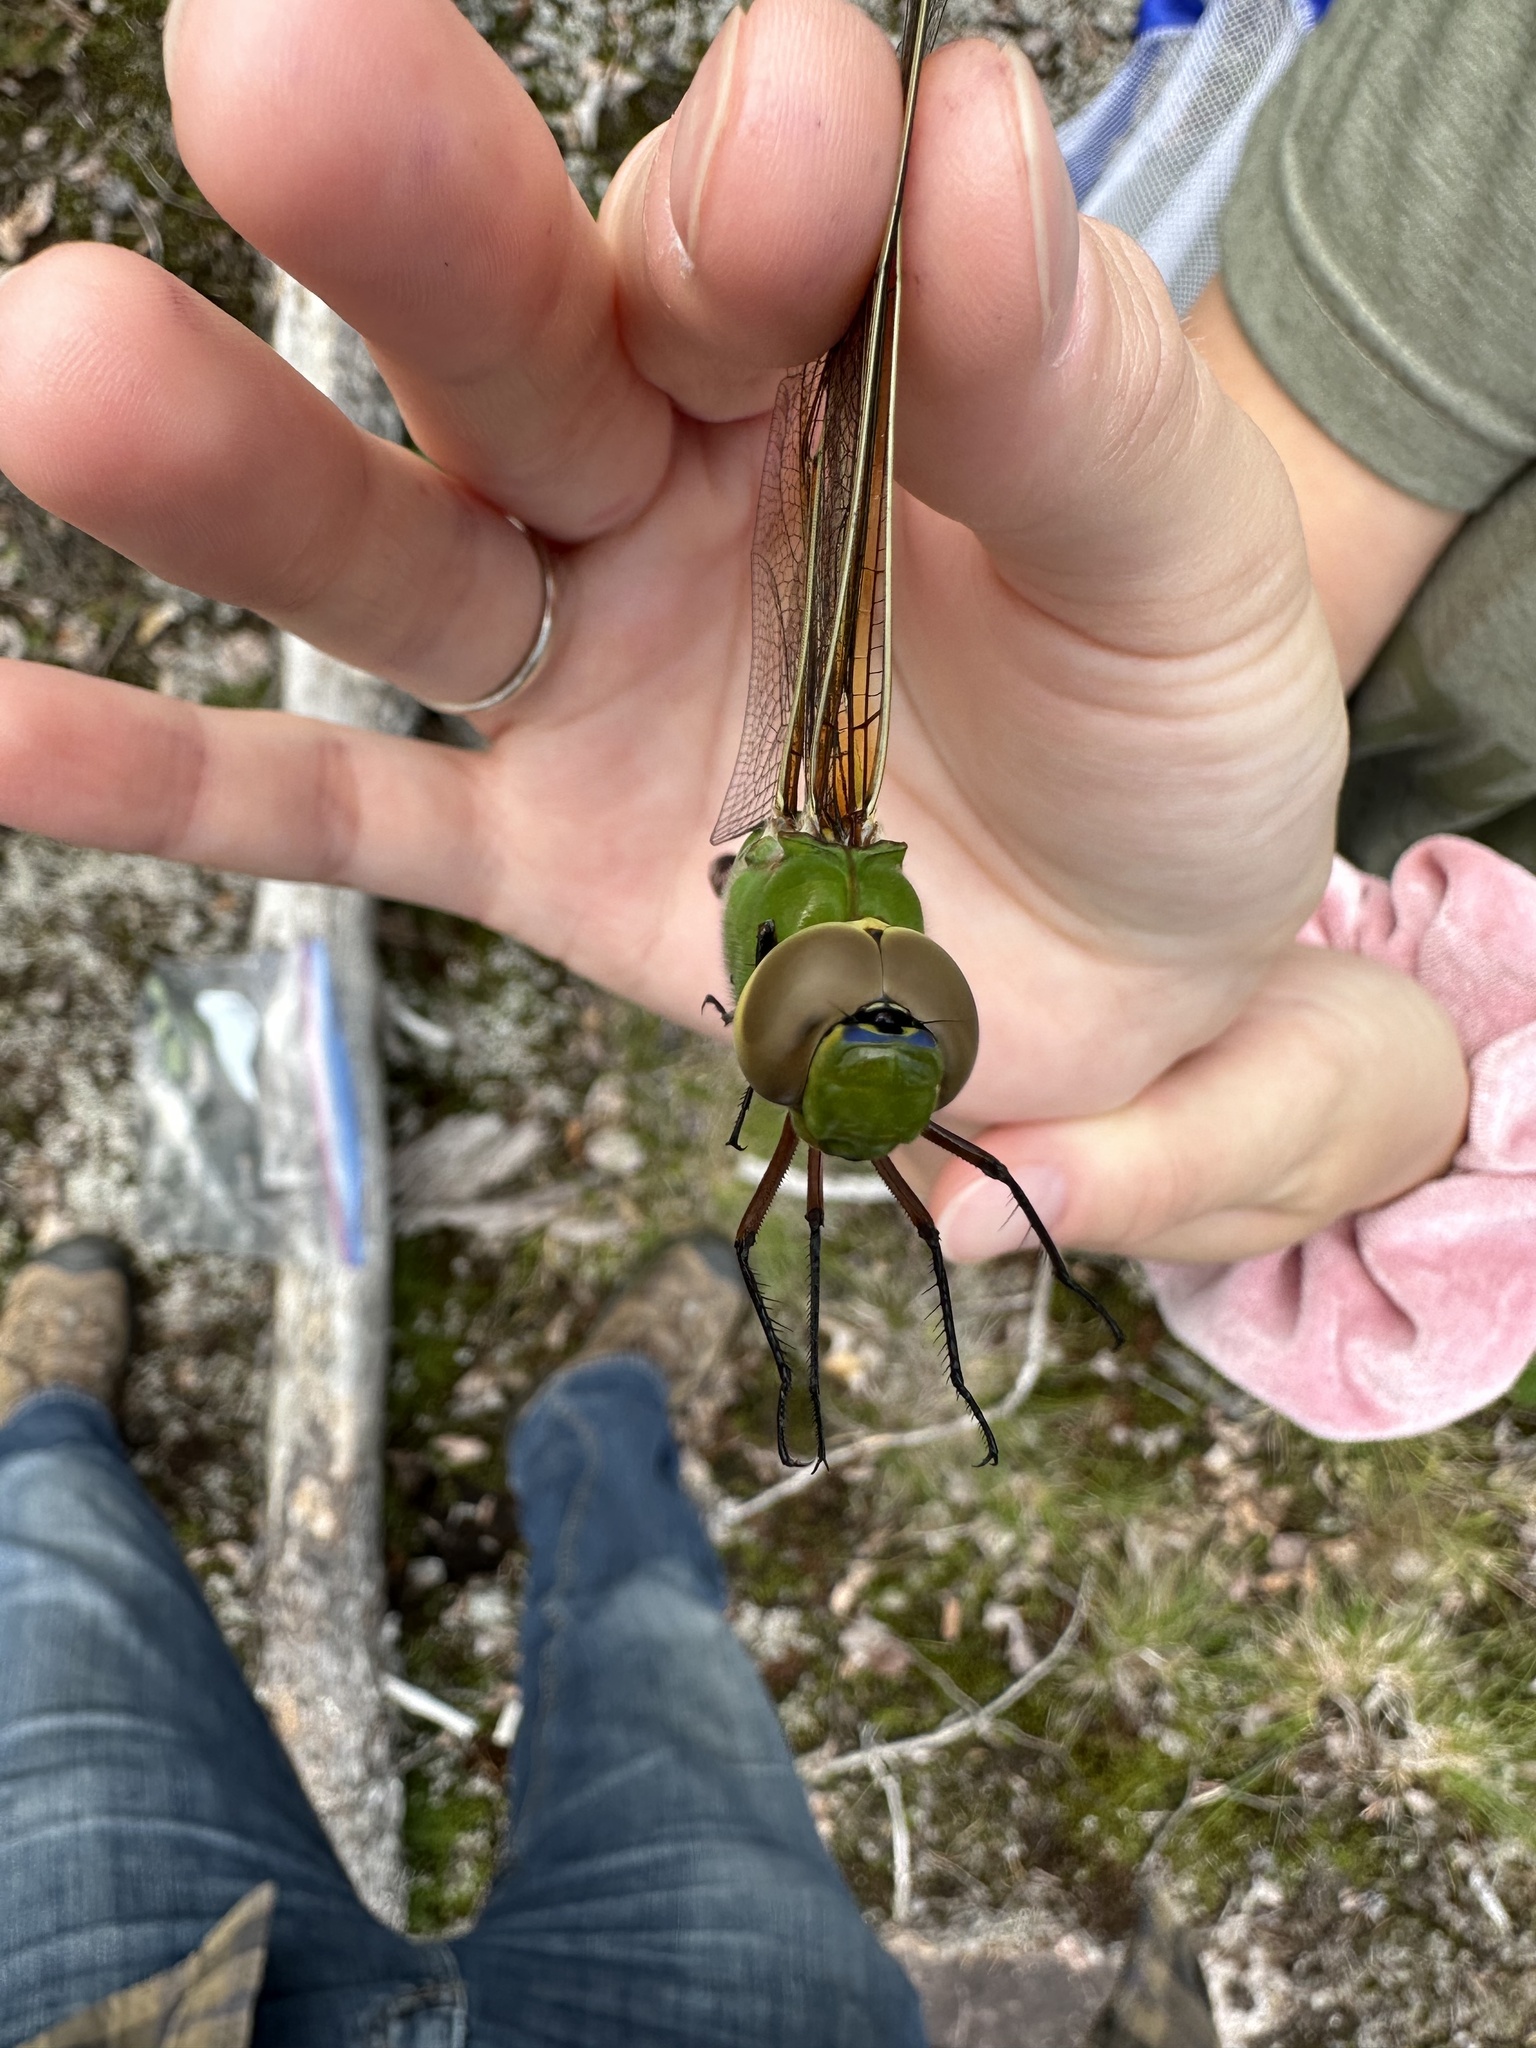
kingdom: Animalia
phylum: Arthropoda
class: Insecta
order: Odonata
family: Aeshnidae
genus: Anax
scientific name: Anax junius
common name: Common green darner
